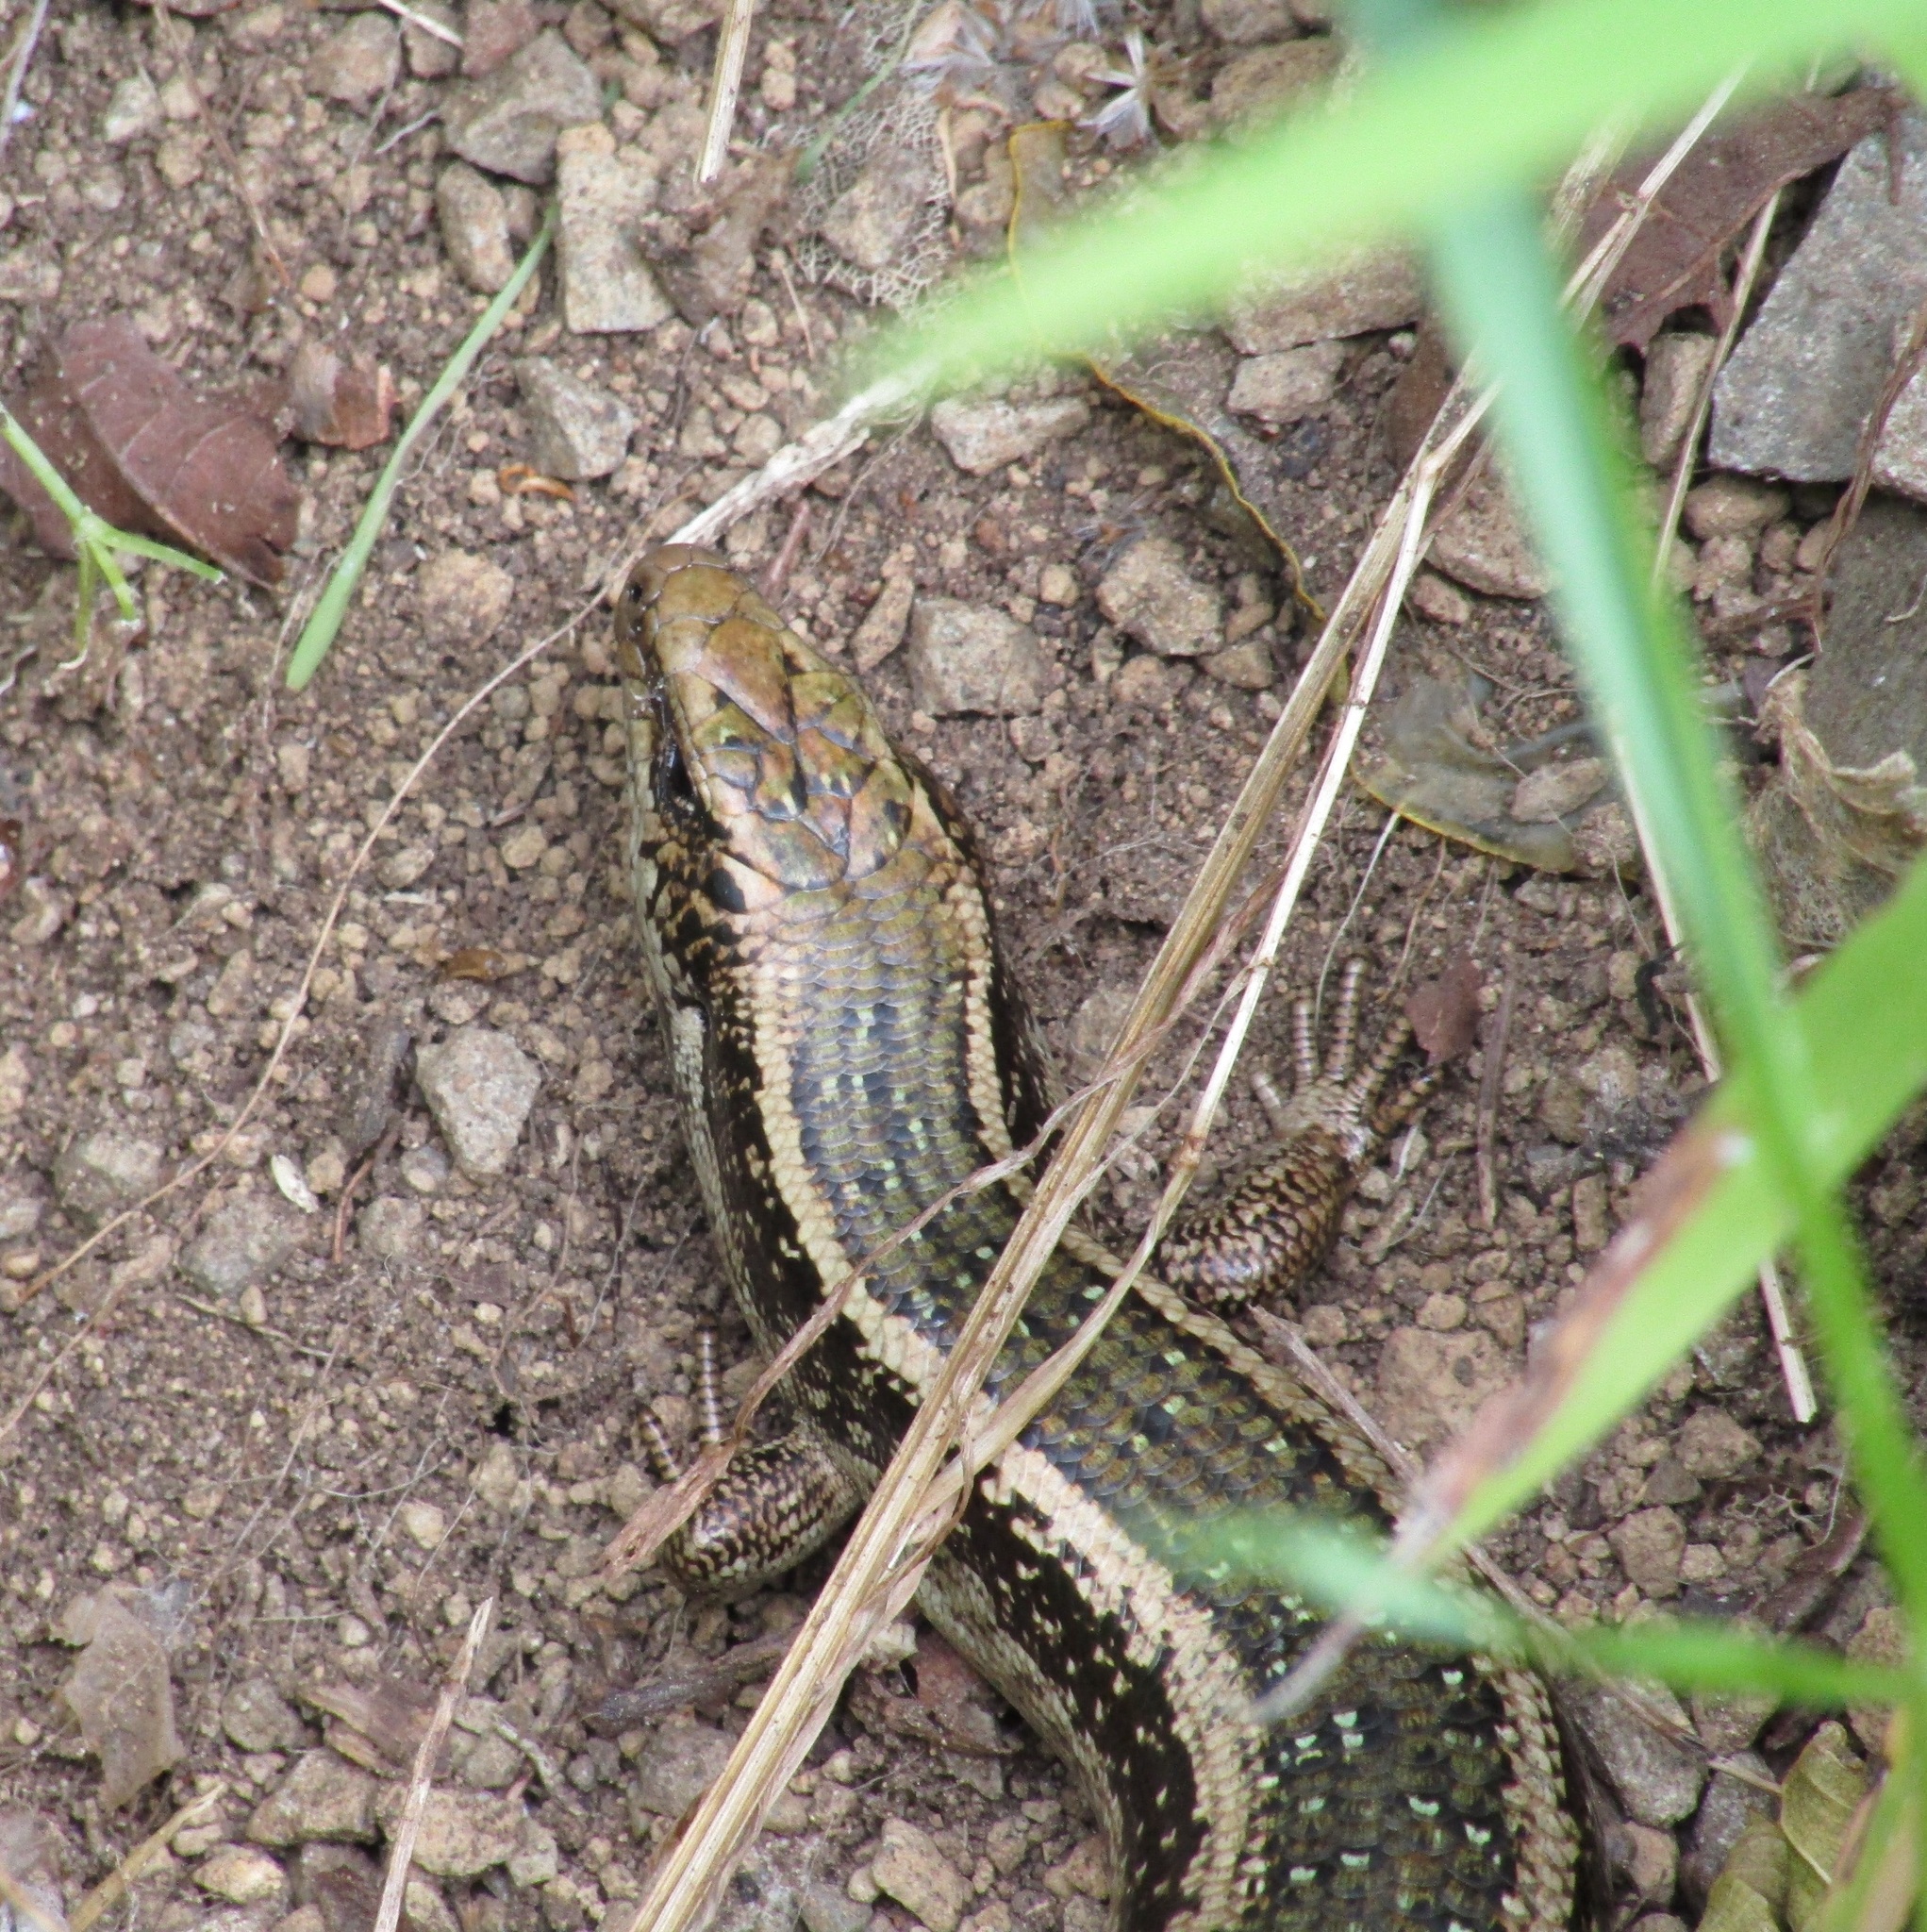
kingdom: Animalia
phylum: Chordata
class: Squamata
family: Scincidae
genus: Oligosoma
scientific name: Oligosoma kokowai
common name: Northern spotted skink
